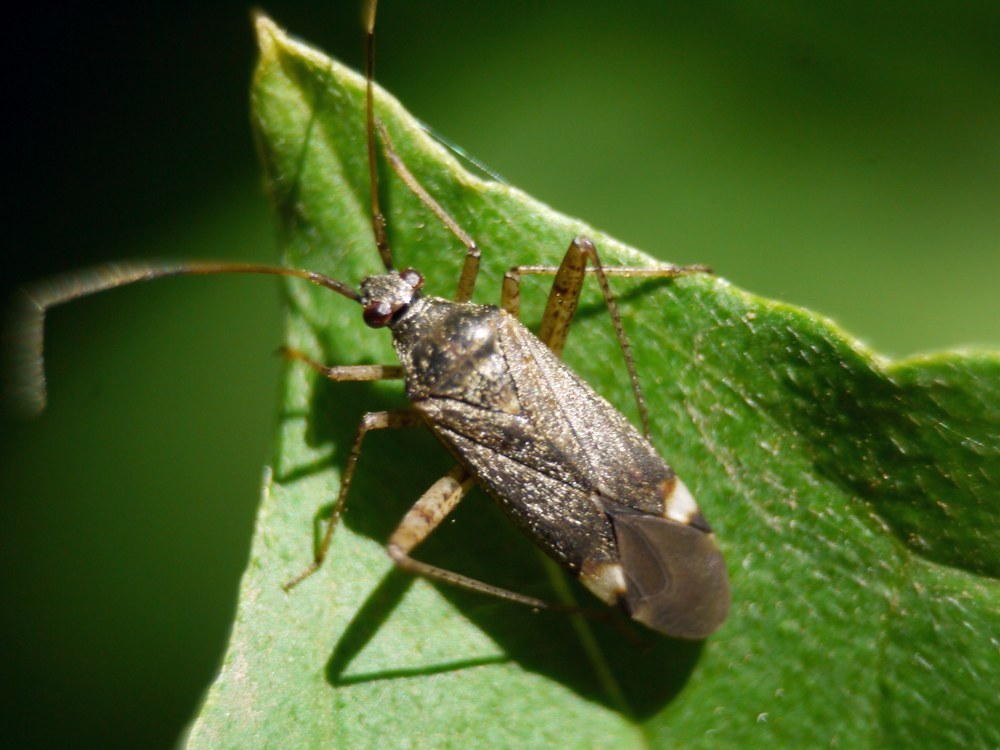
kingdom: Animalia
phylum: Arthropoda
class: Insecta
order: Hemiptera
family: Miridae
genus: Closterotomus
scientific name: Closterotomus fulvomaculatus
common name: Spotted plant bug
